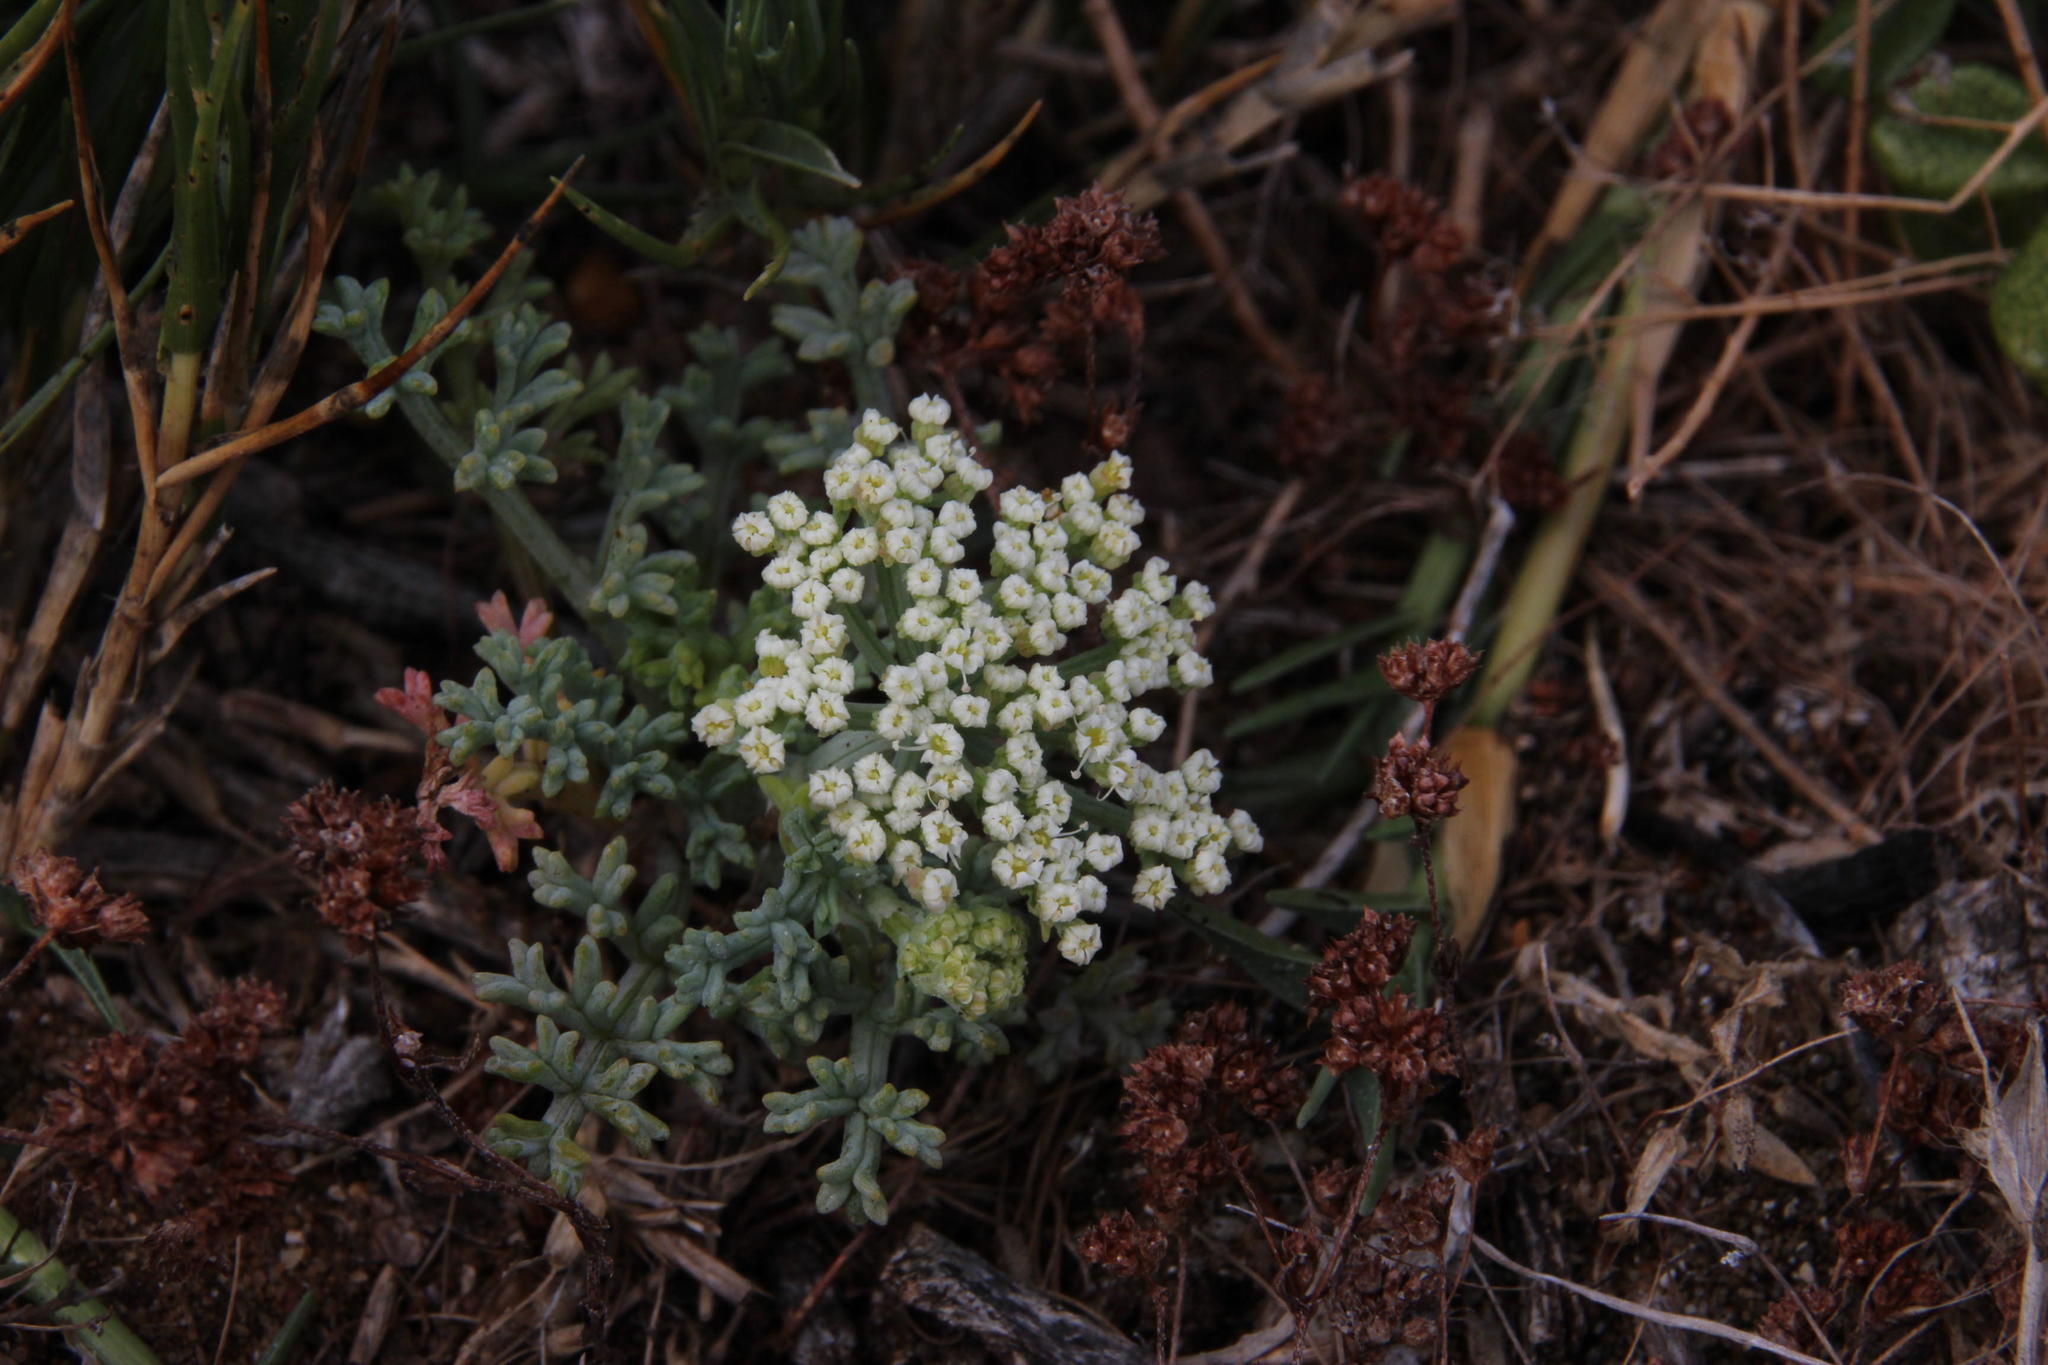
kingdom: Plantae
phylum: Tracheophyta
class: Magnoliopsida
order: Apiales
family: Apiaceae
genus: Dasispermum
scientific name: Dasispermum suffruticosum
